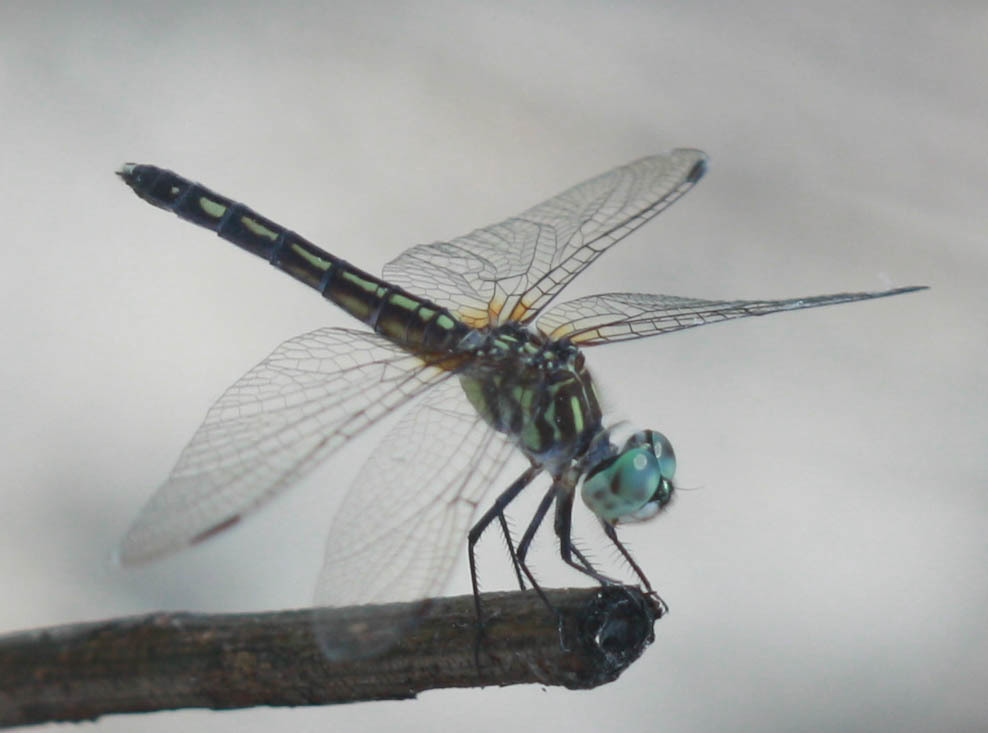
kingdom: Animalia
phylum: Arthropoda
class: Insecta
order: Odonata
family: Libellulidae
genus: Pachydiplax
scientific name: Pachydiplax longipennis
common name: Blue dasher
